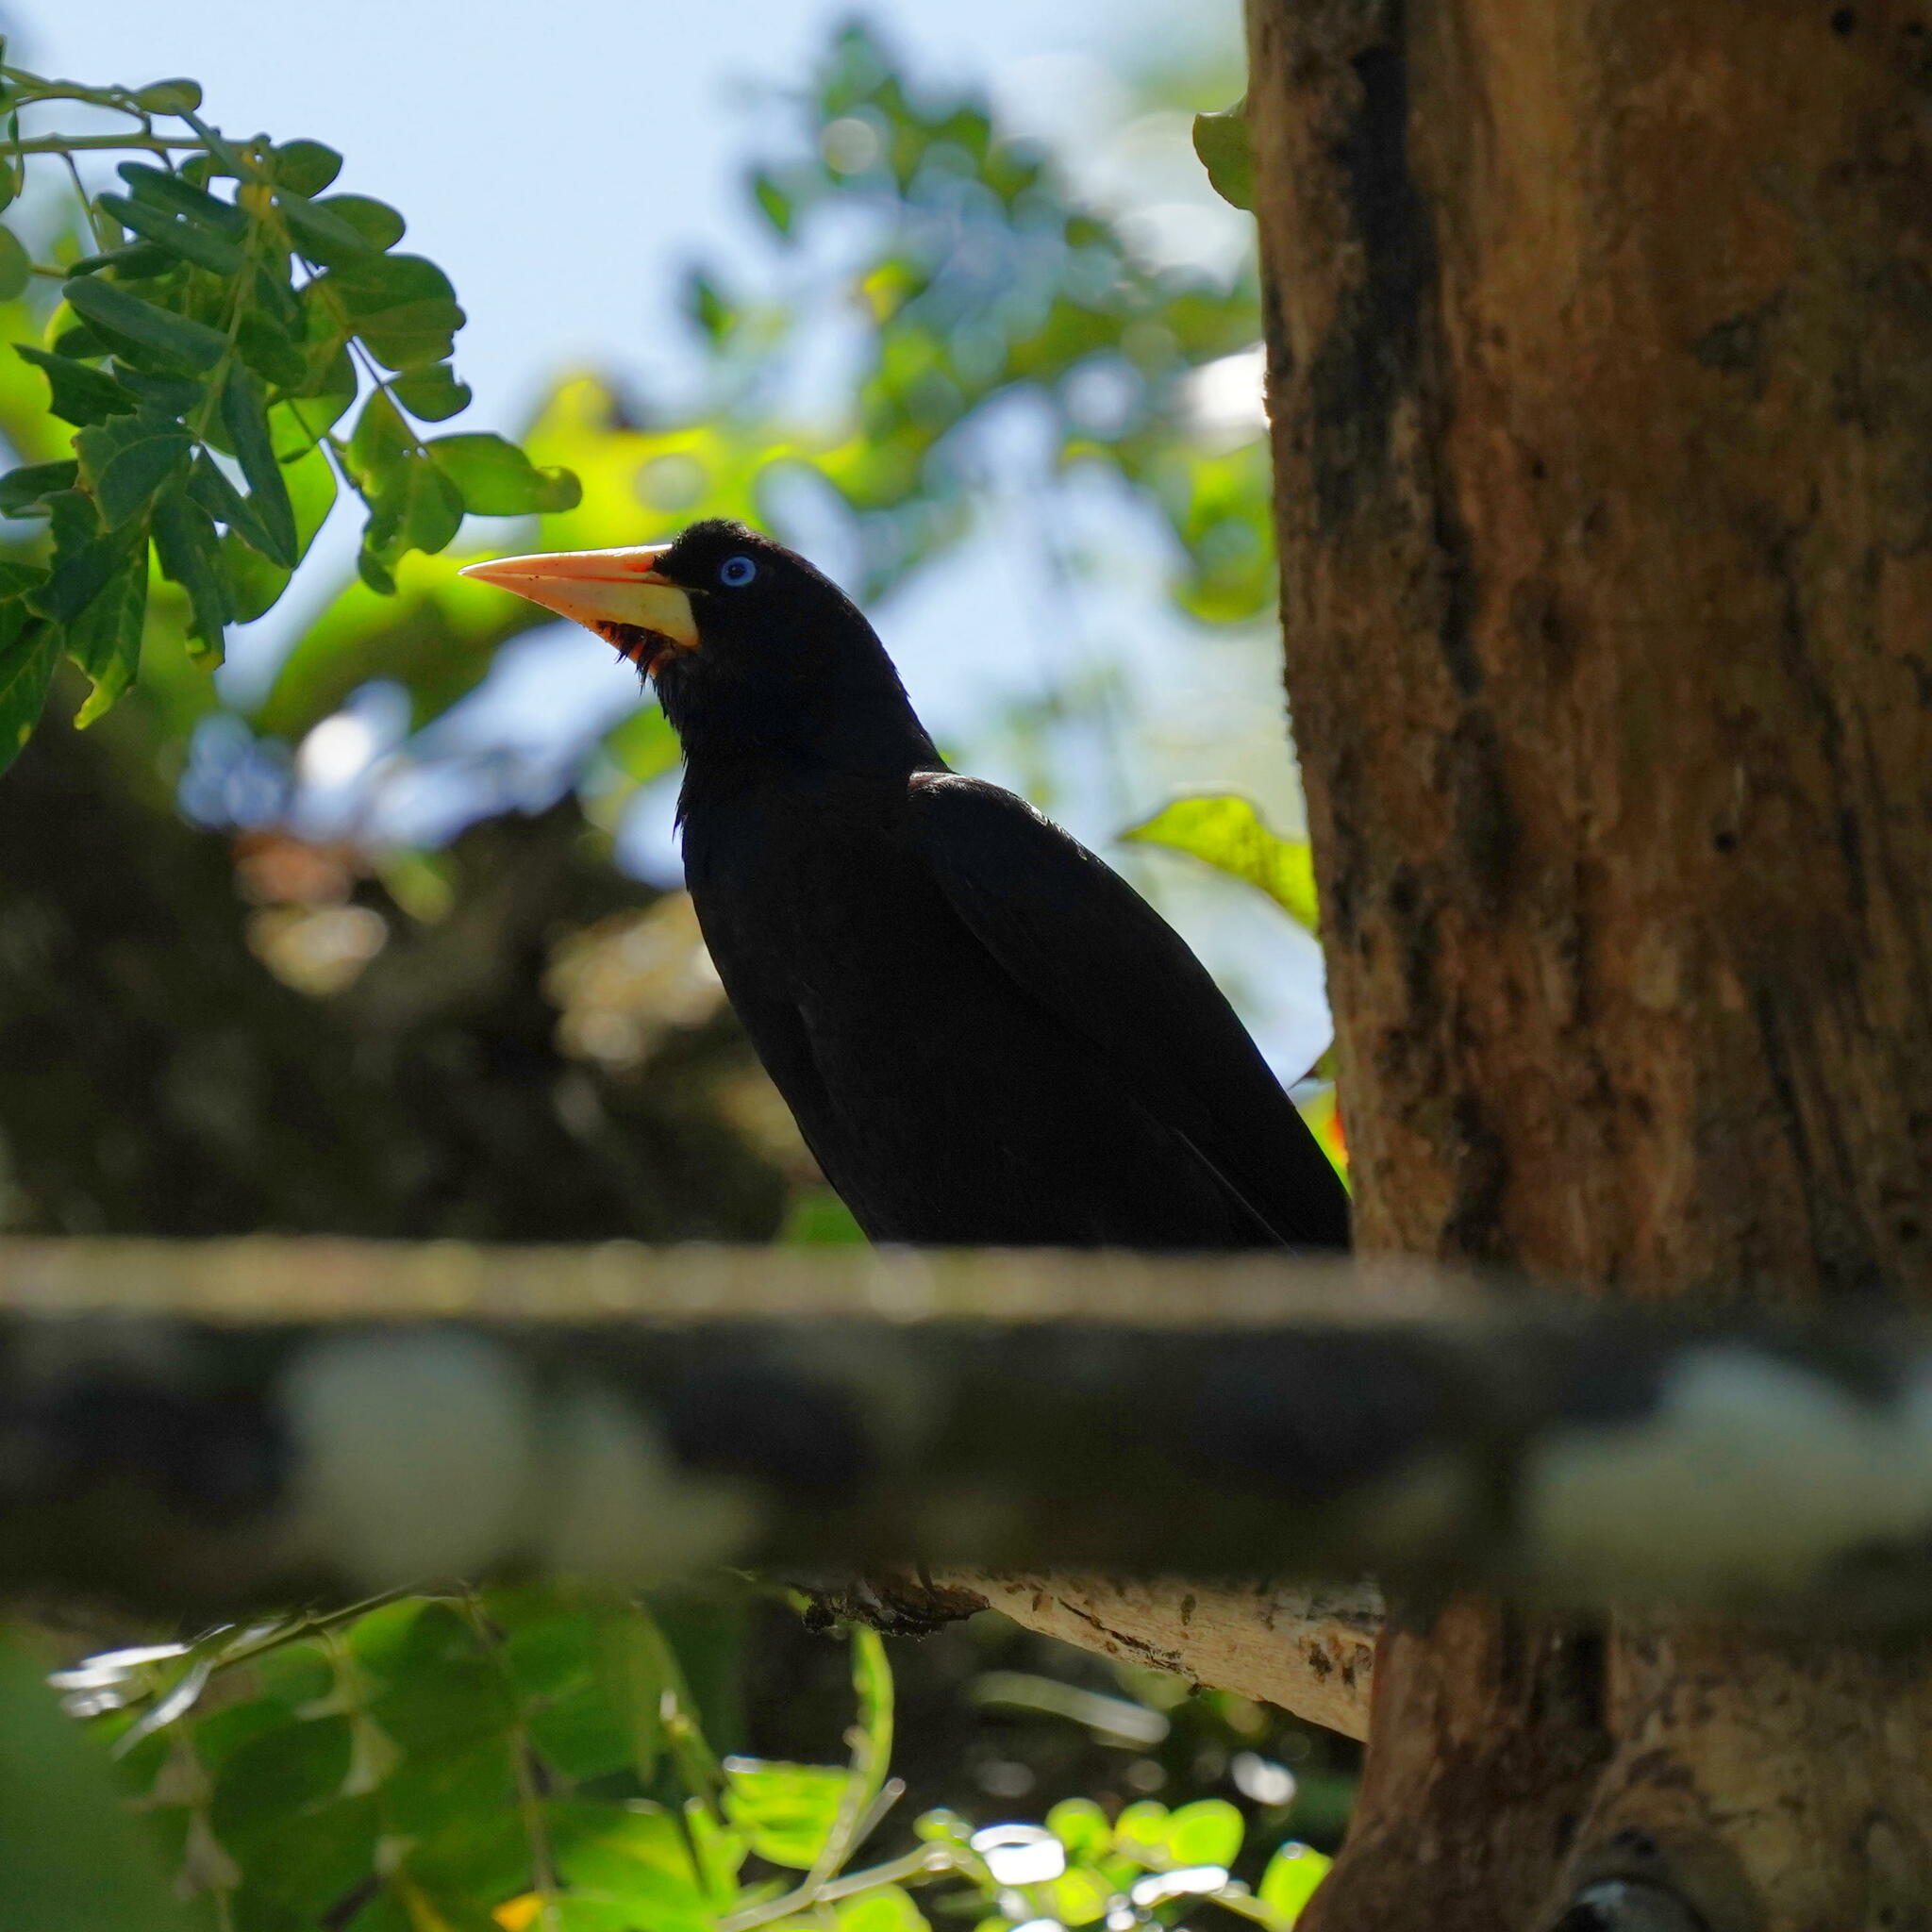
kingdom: Animalia
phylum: Chordata
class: Aves
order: Passeriformes
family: Icteridae
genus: Psarocolius
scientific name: Psarocolius decumanus
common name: Crested oropendola
